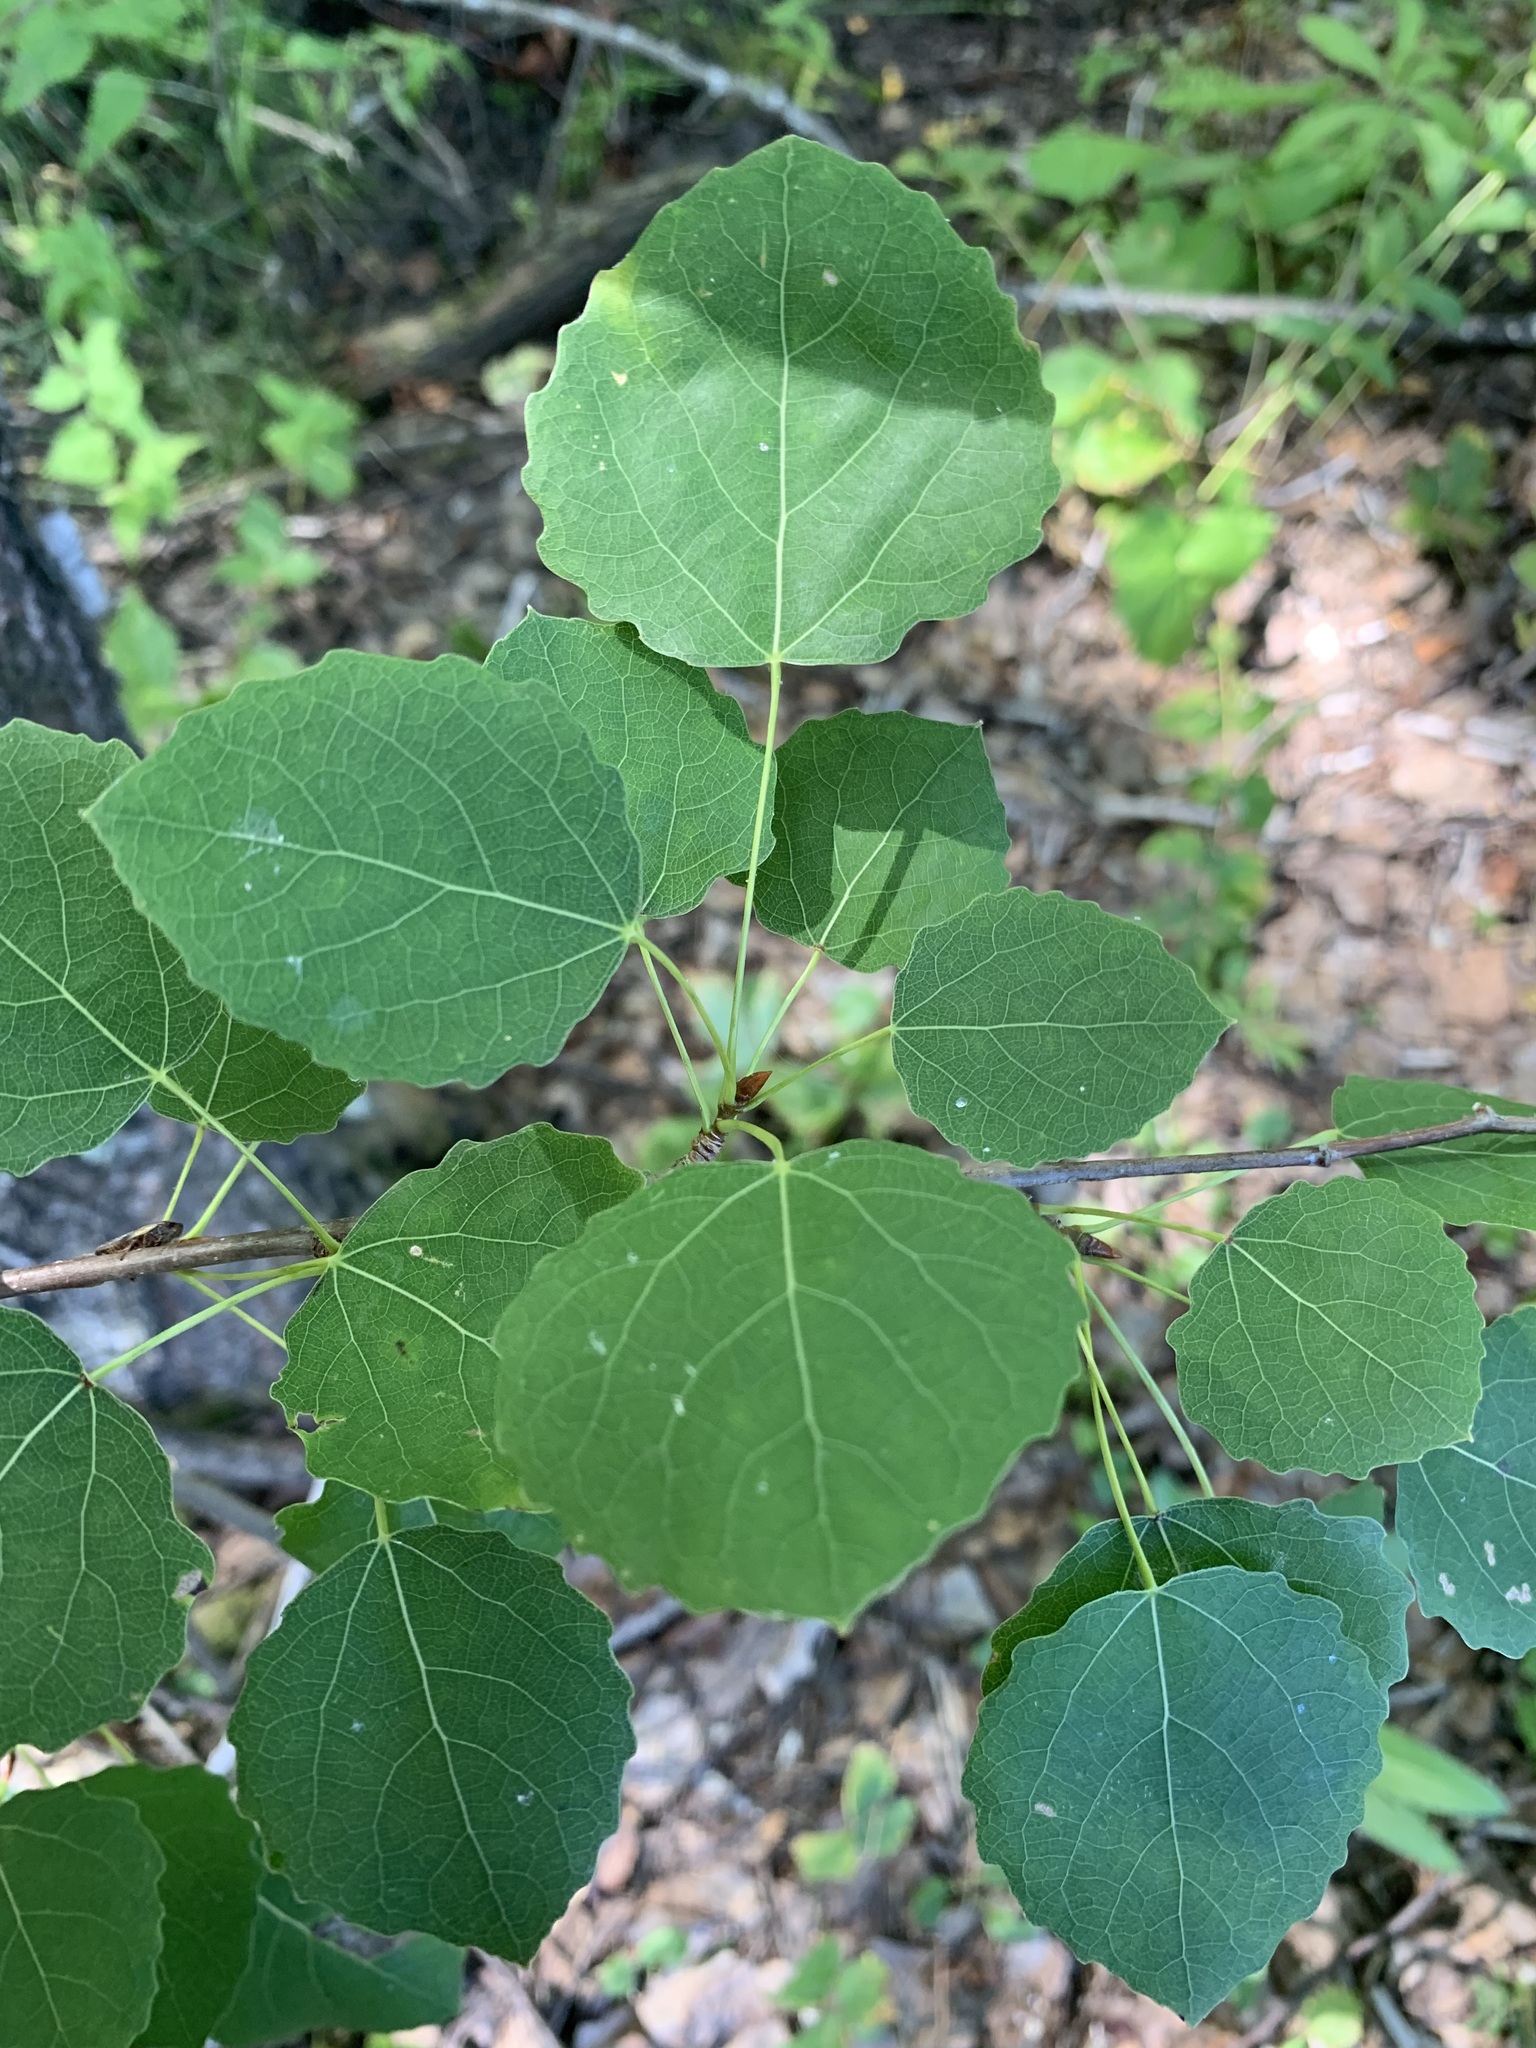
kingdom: Plantae
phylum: Tracheophyta
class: Magnoliopsida
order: Malpighiales
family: Salicaceae
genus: Populus
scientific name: Populus tremula
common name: European aspen
